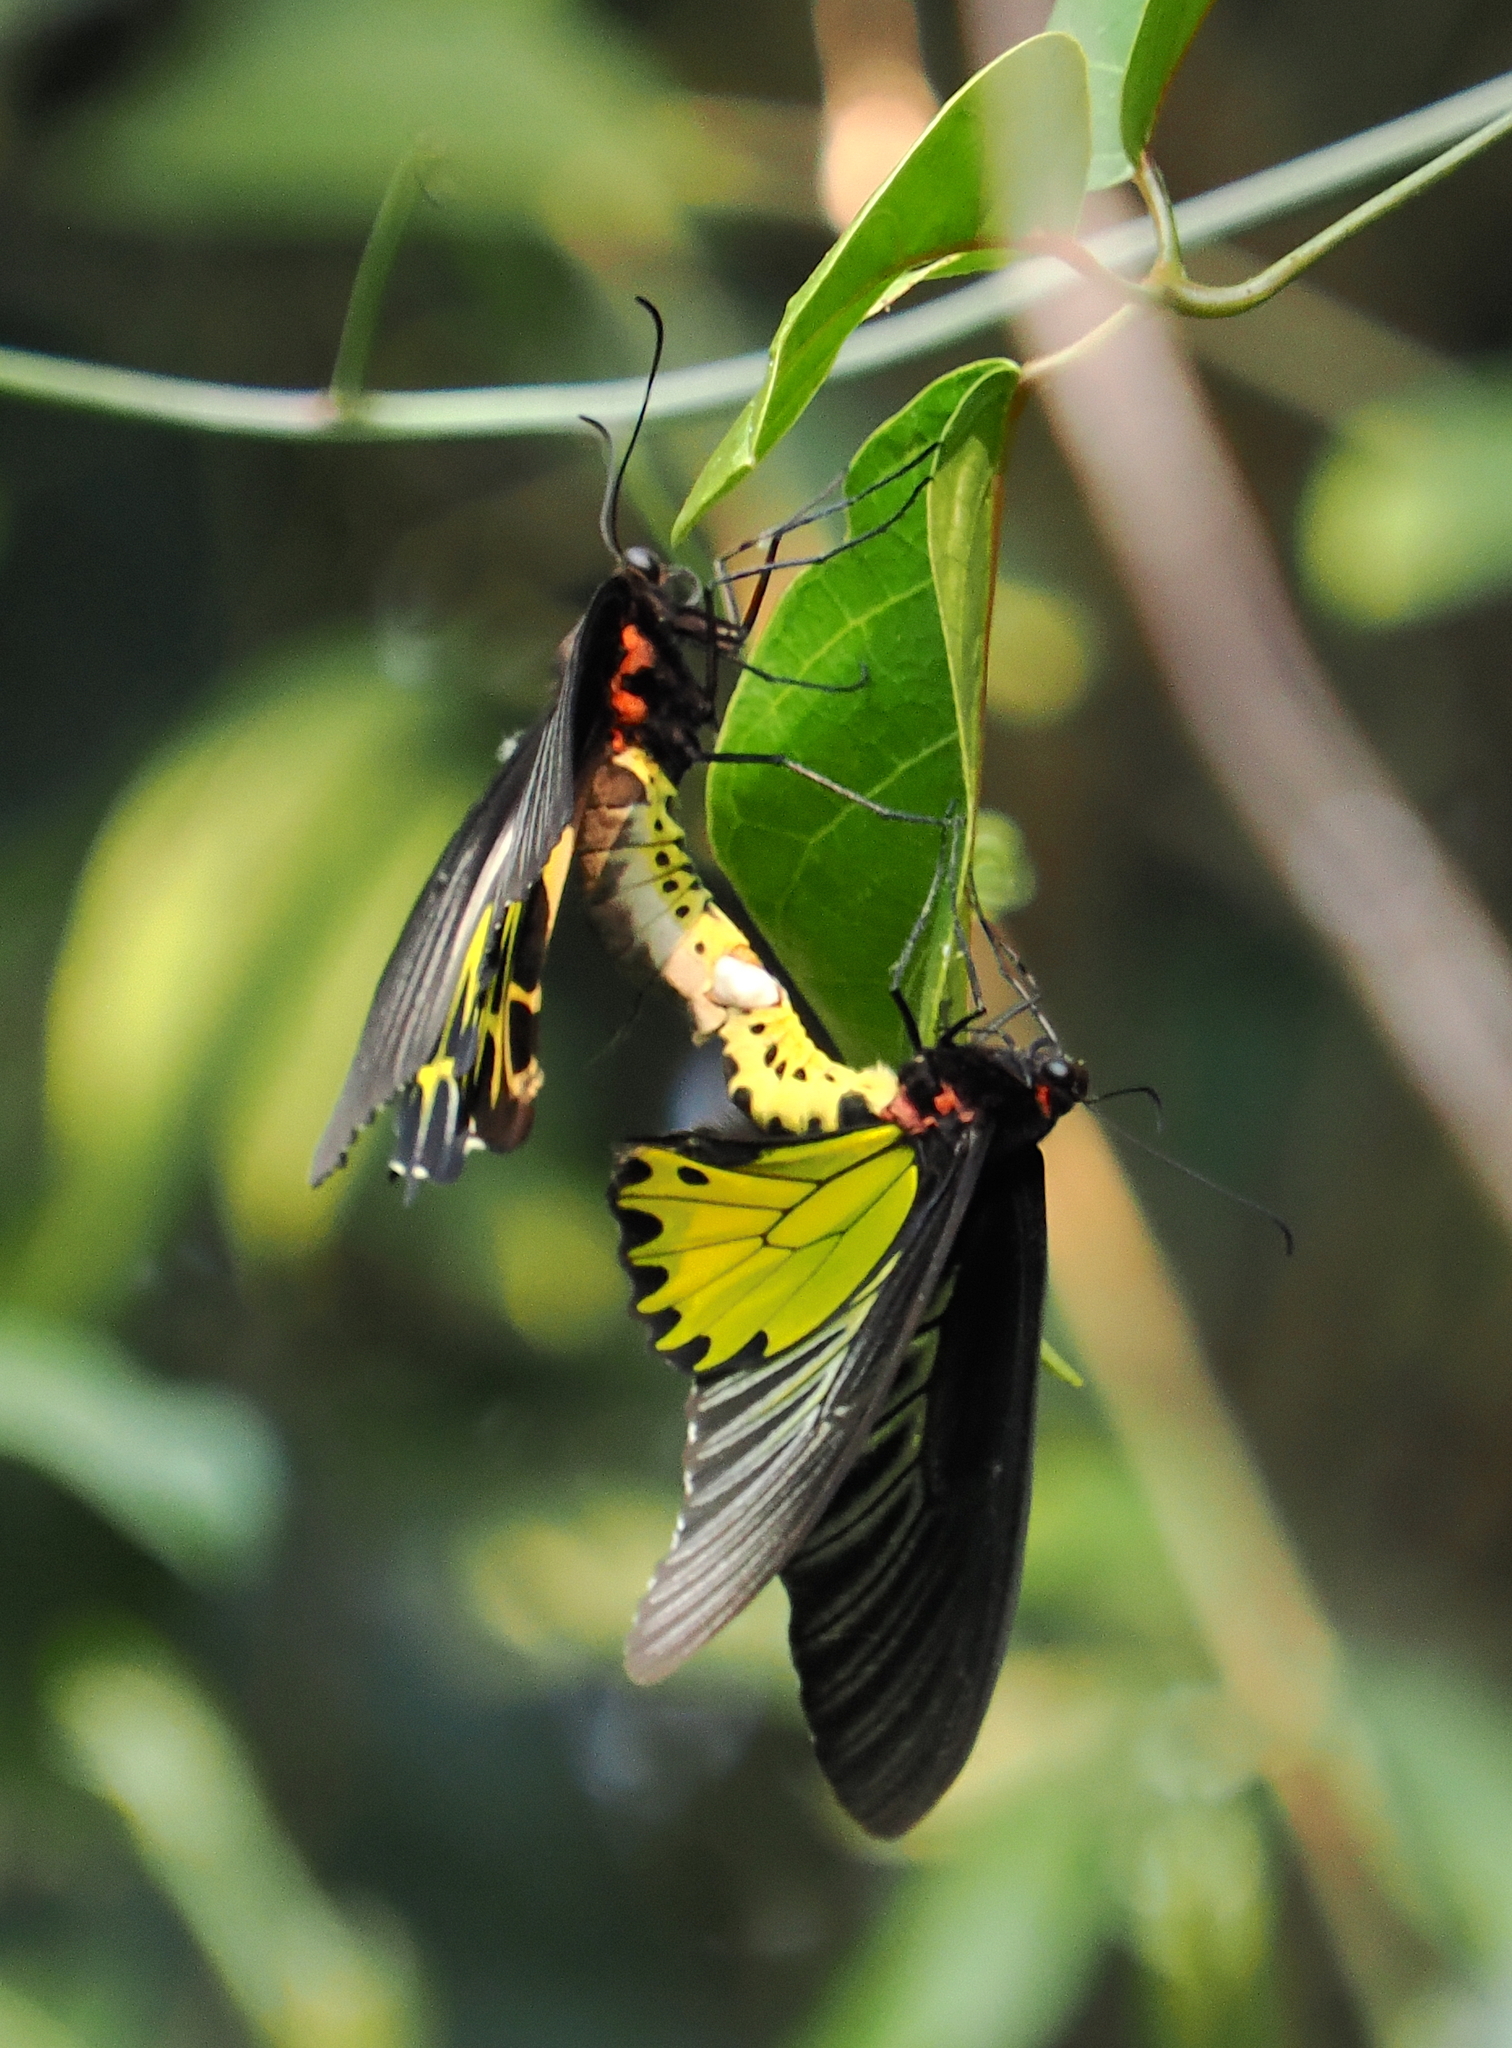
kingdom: Animalia
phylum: Arthropoda
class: Insecta
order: Lepidoptera
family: Papilionidae
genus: Troides
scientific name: Troides aeacus
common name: Golden birdwing
